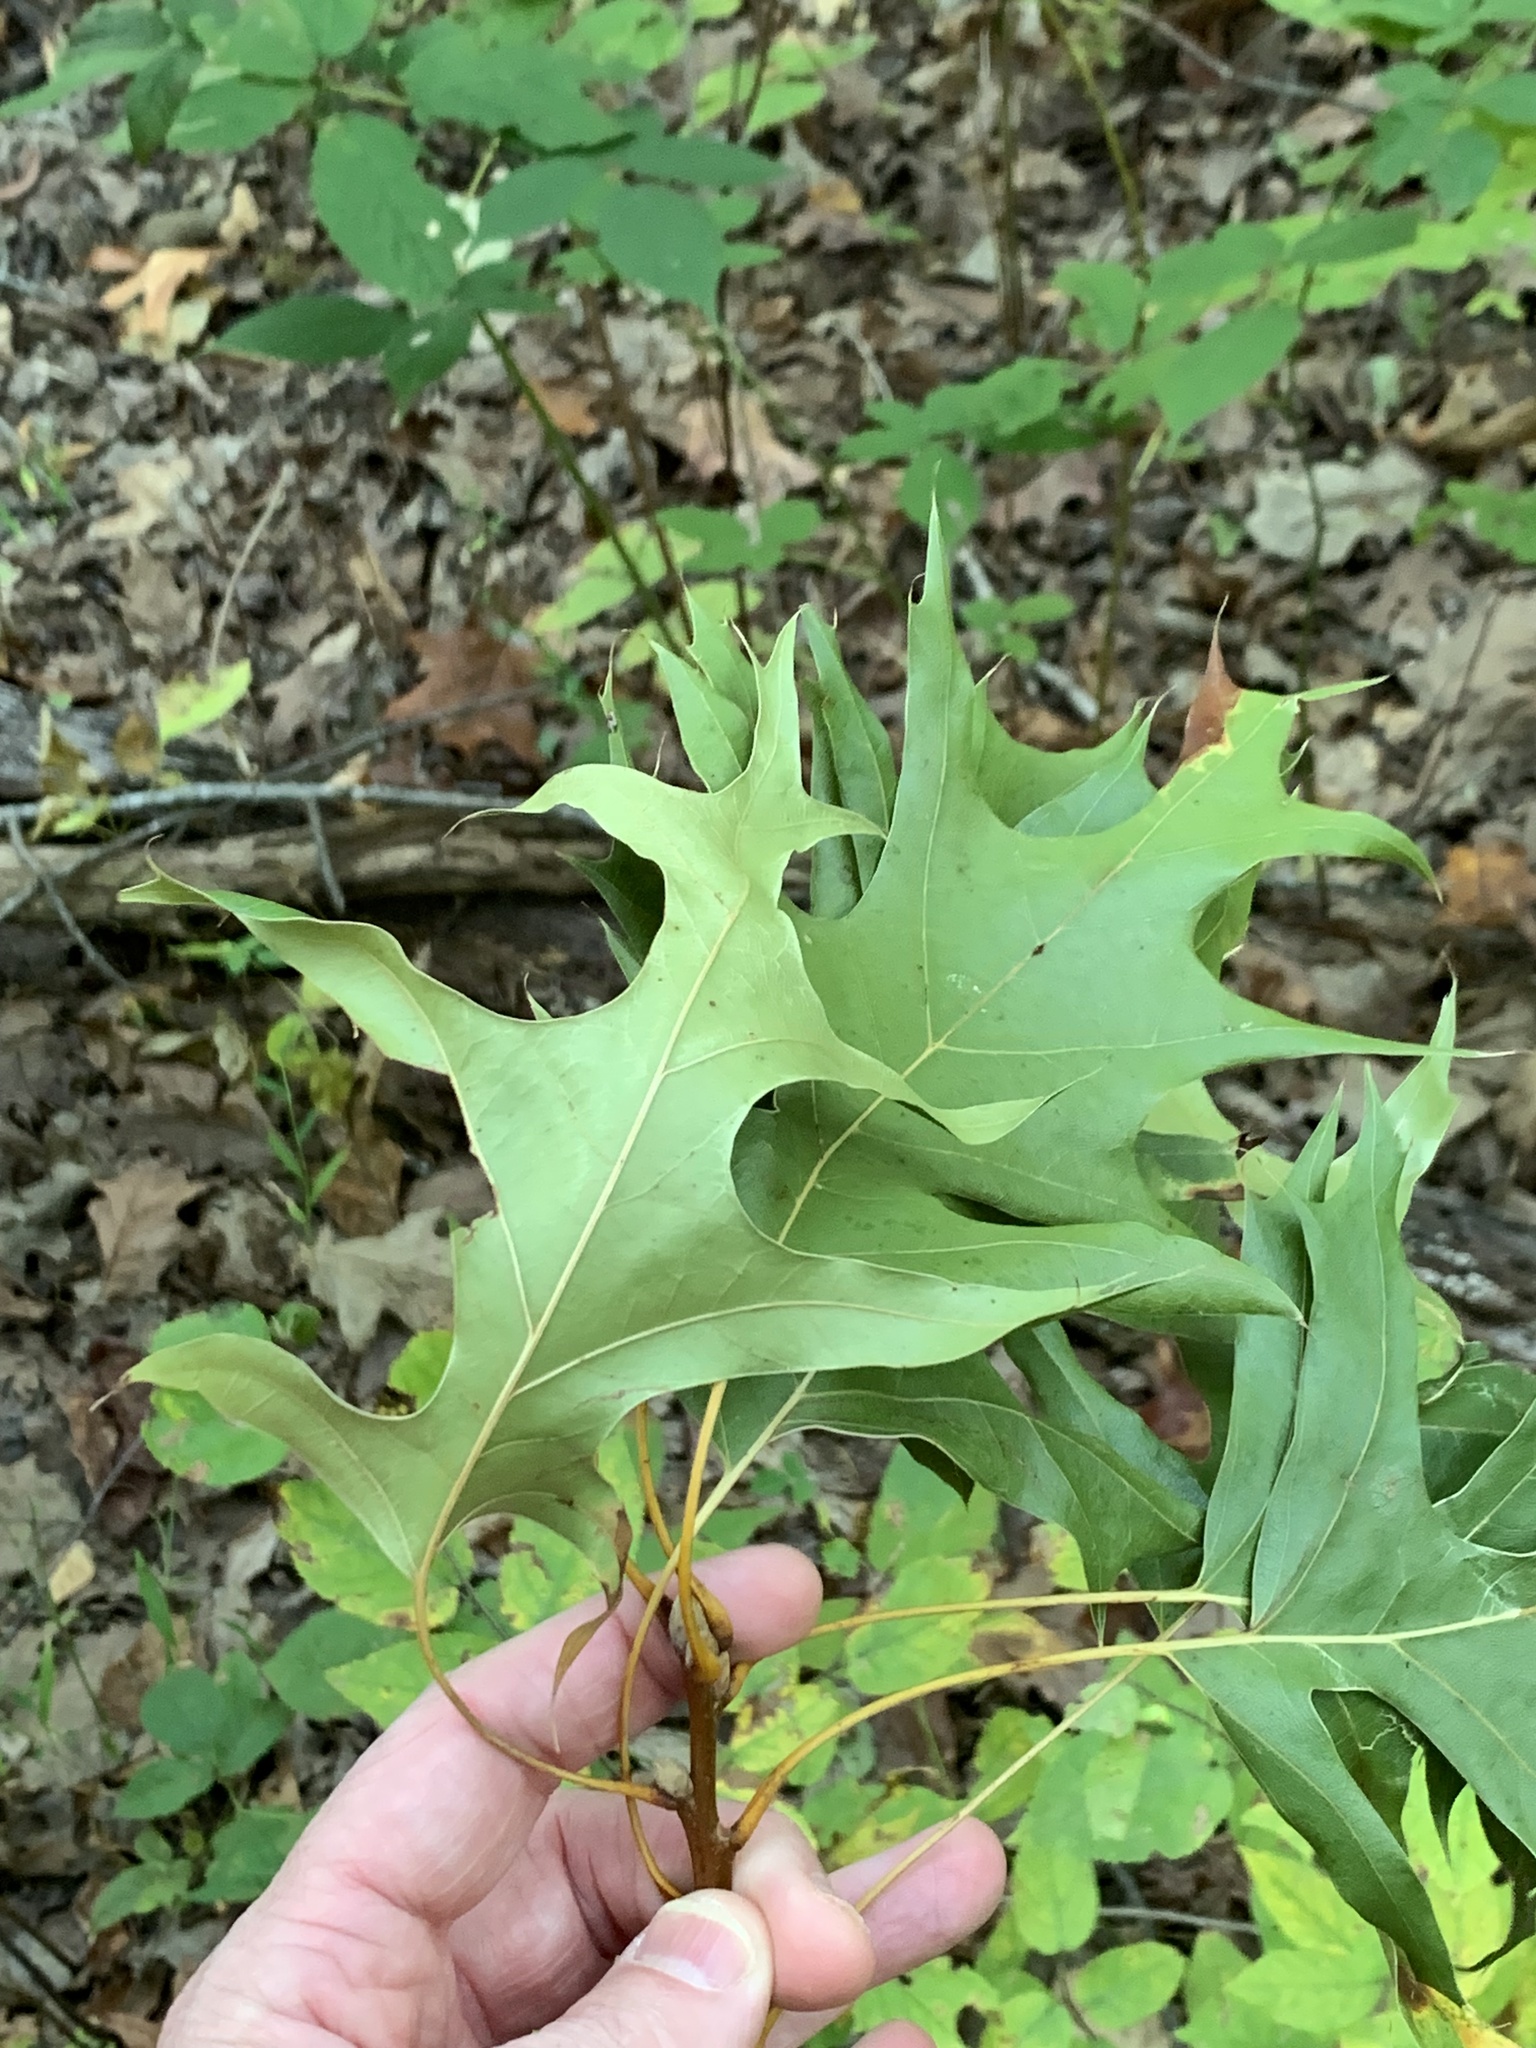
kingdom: Plantae
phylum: Tracheophyta
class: Magnoliopsida
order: Fagales
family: Fagaceae
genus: Quercus
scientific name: Quercus velutina
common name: Black oak
